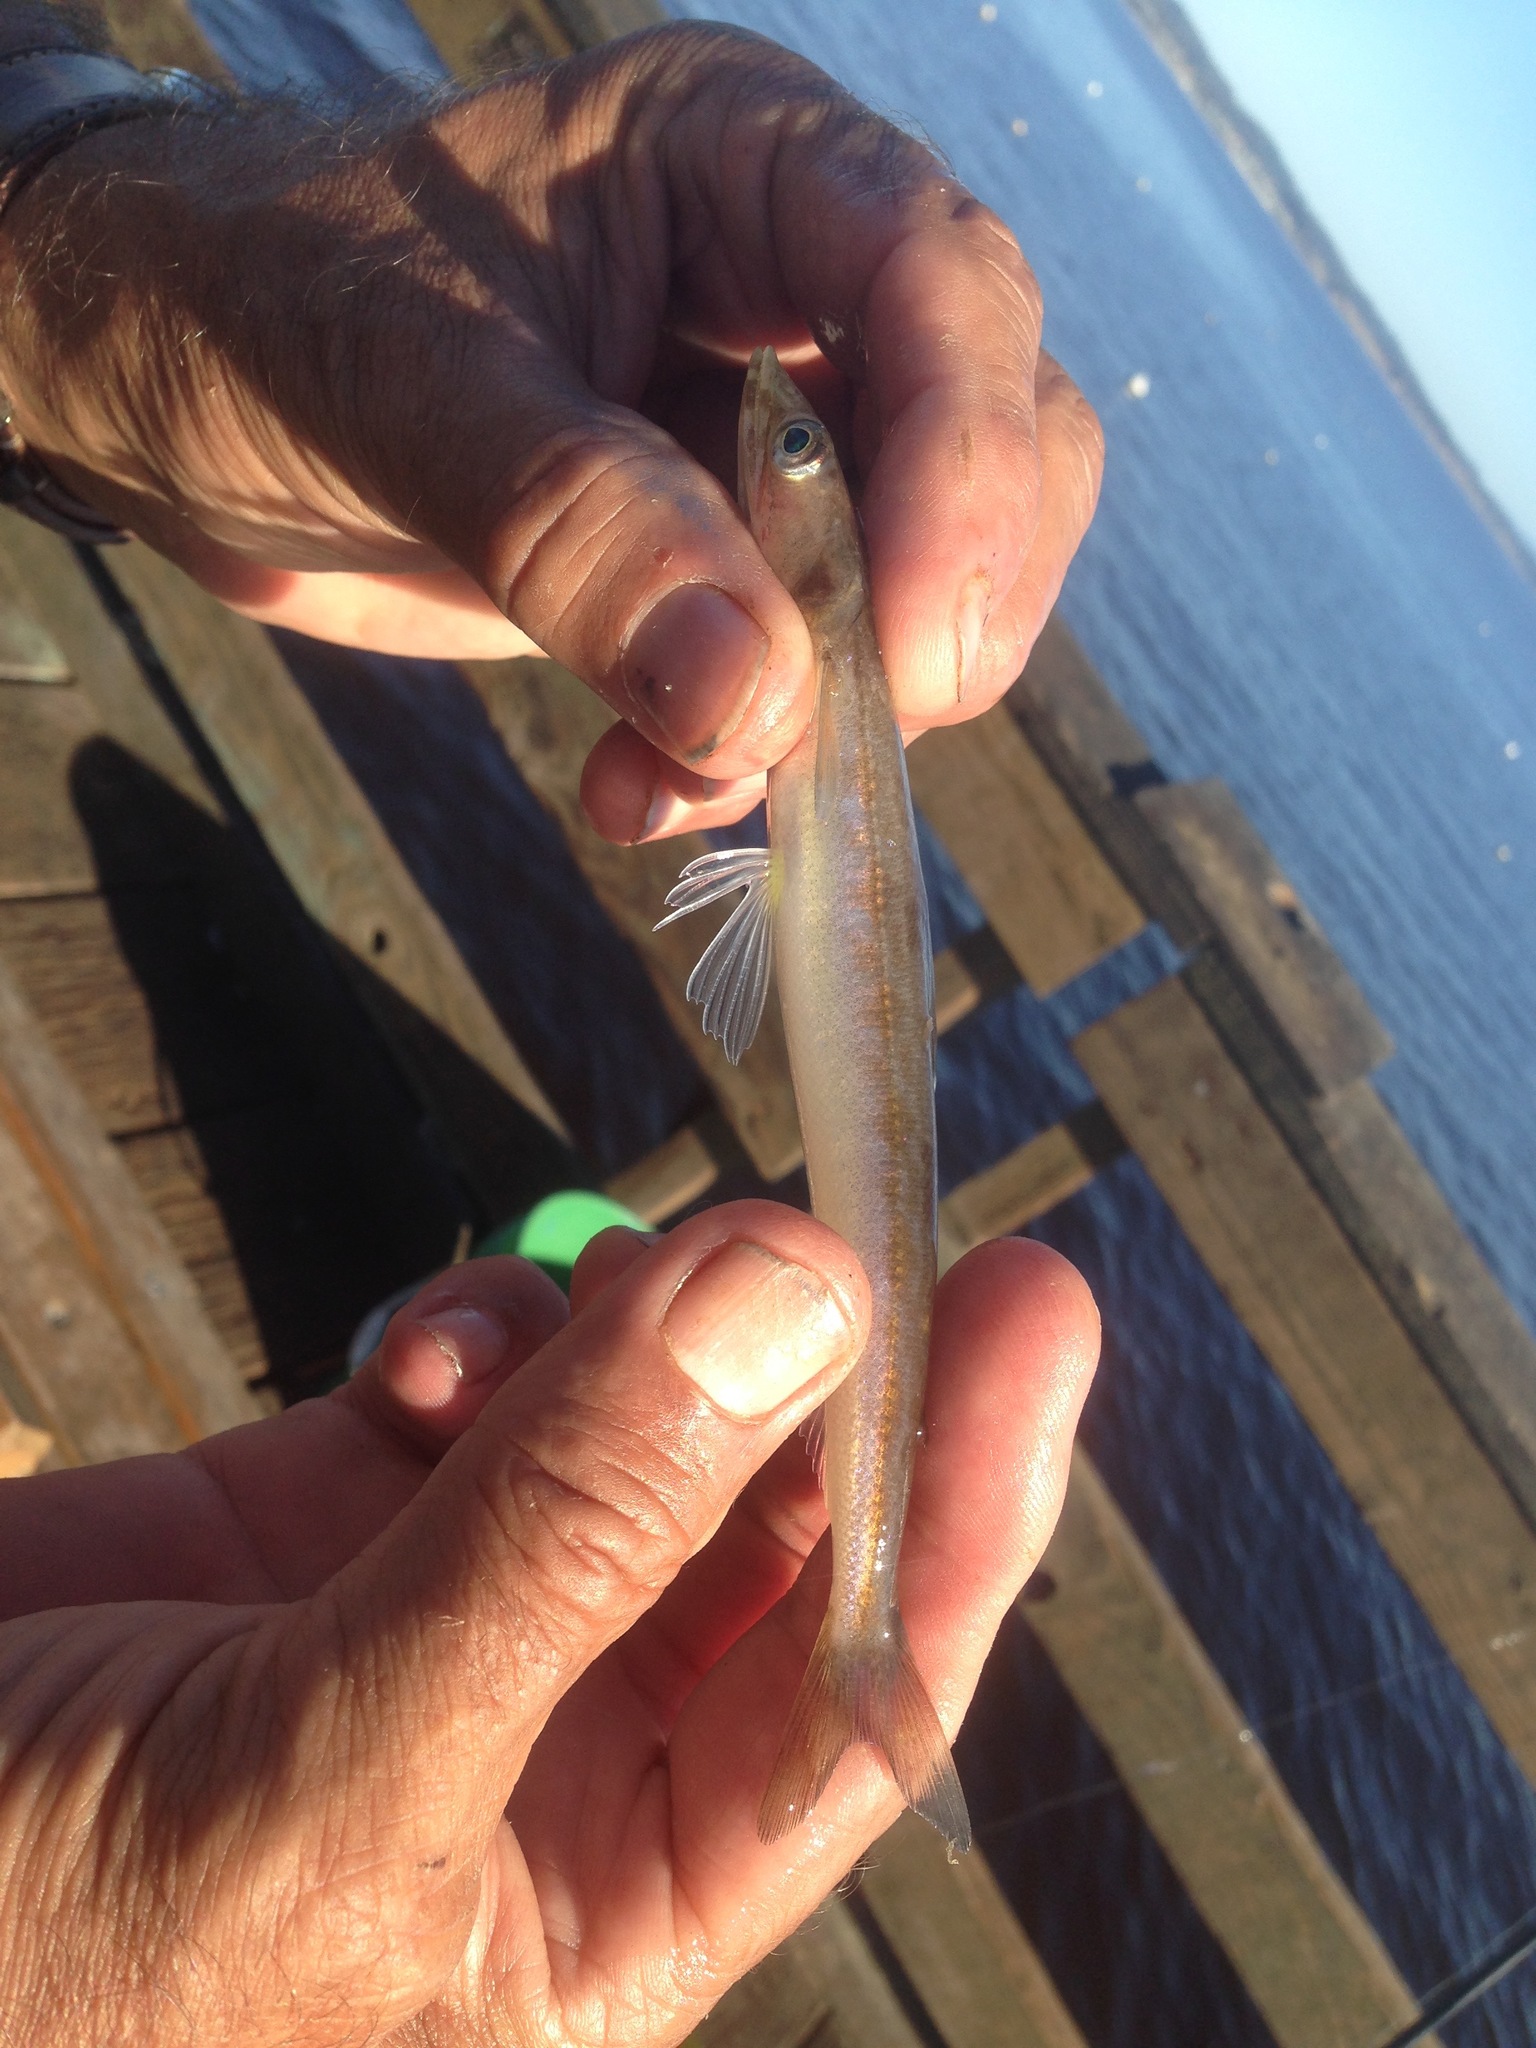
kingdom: Animalia
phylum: Chordata
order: Aulopiformes
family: Synodontidae
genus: Synodus
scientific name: Synodus lucioceps
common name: California lizardfish
